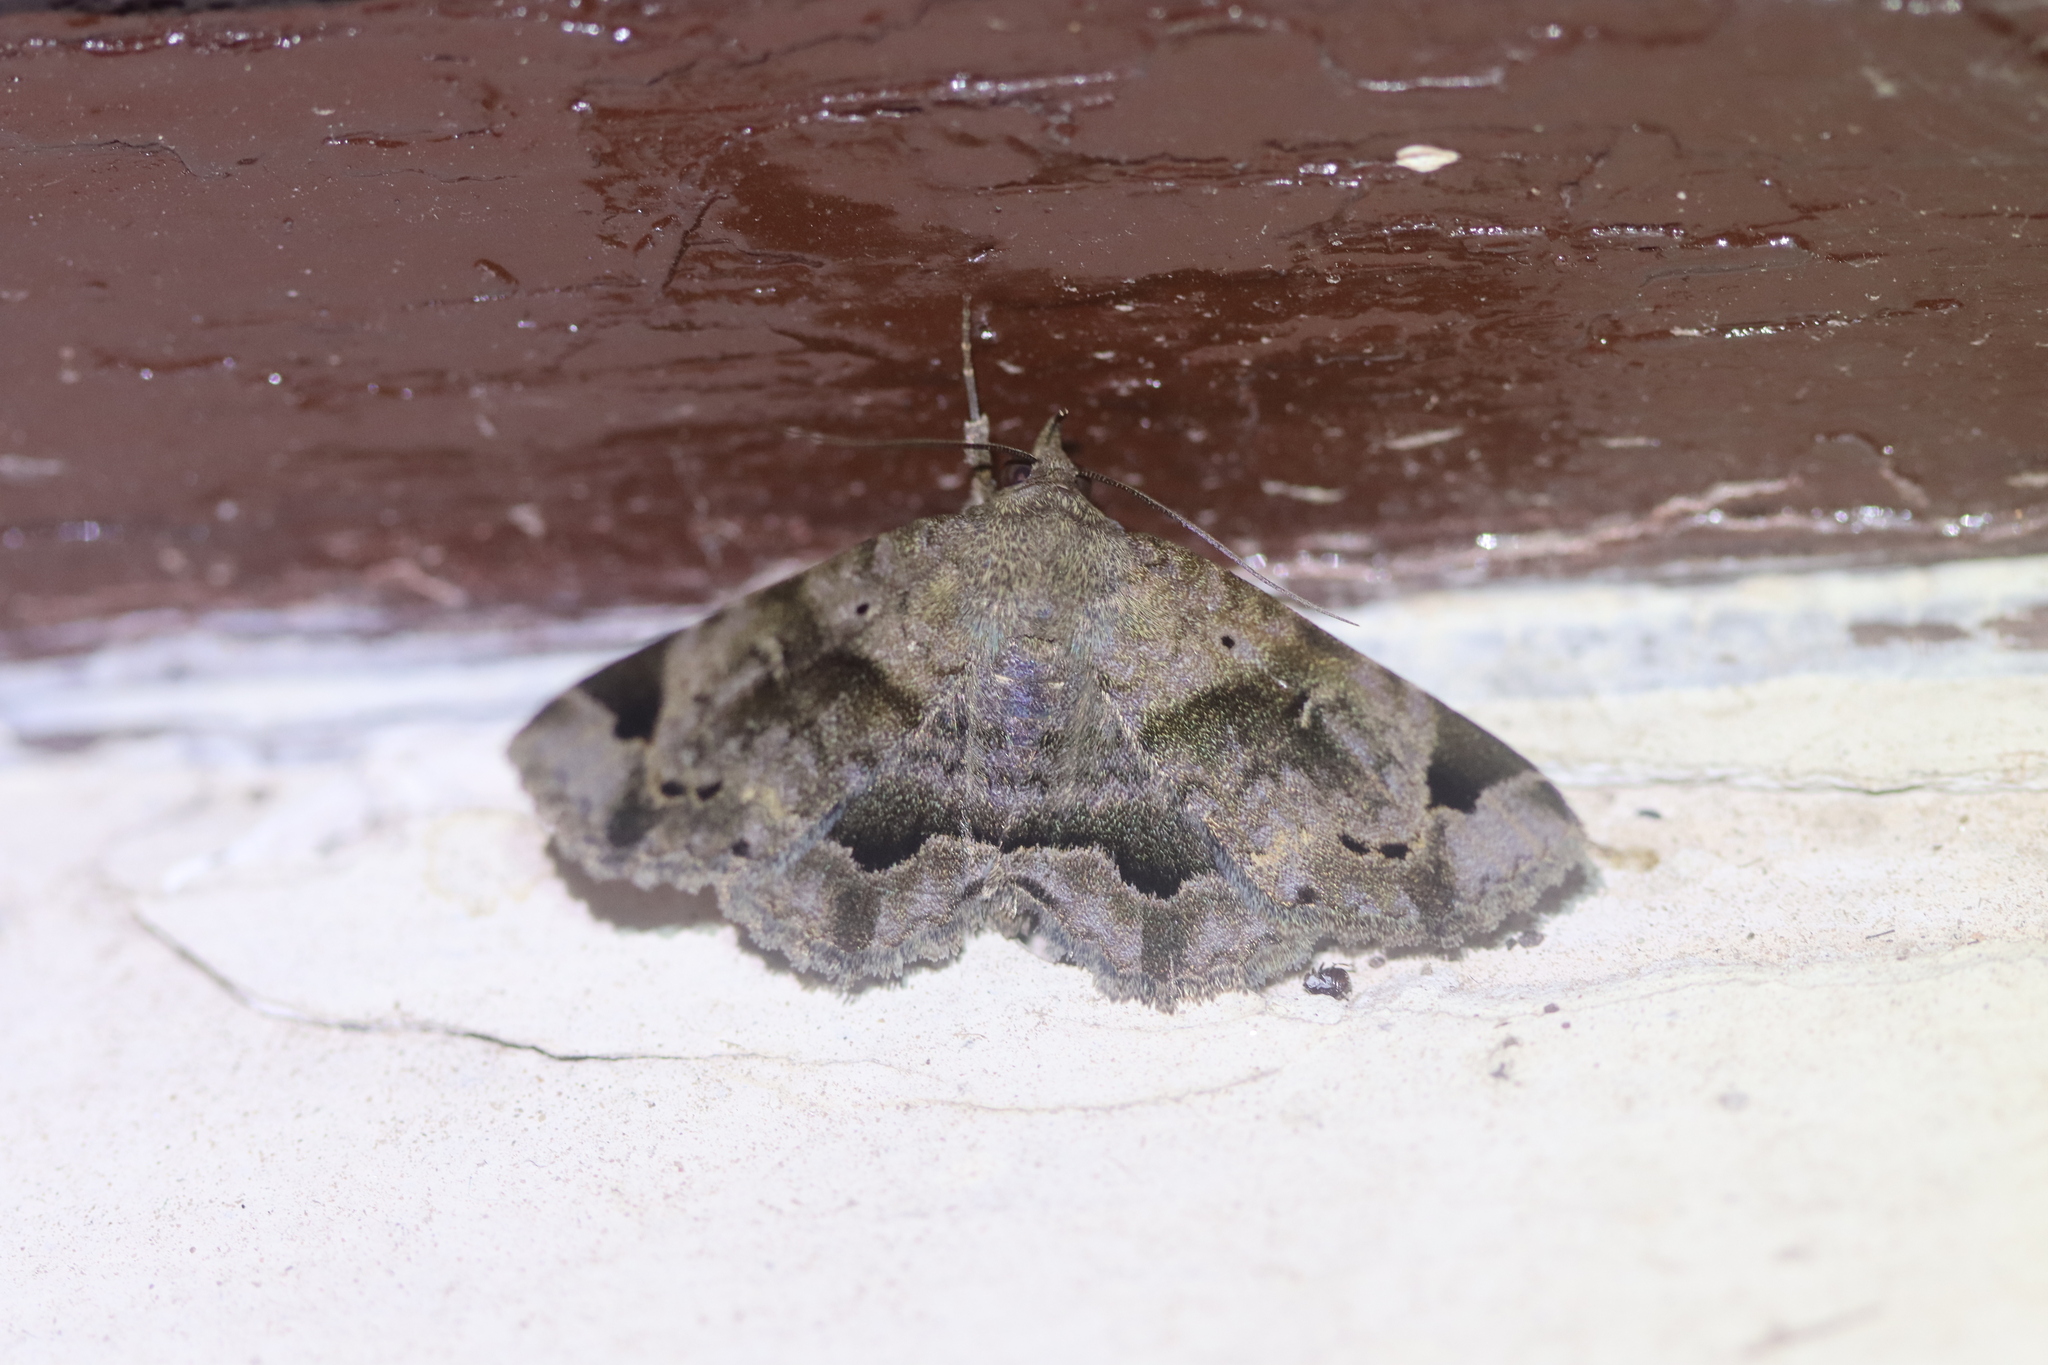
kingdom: Animalia
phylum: Arthropoda
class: Insecta
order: Lepidoptera
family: Erebidae
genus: Mecodina
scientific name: Mecodina cineracea
